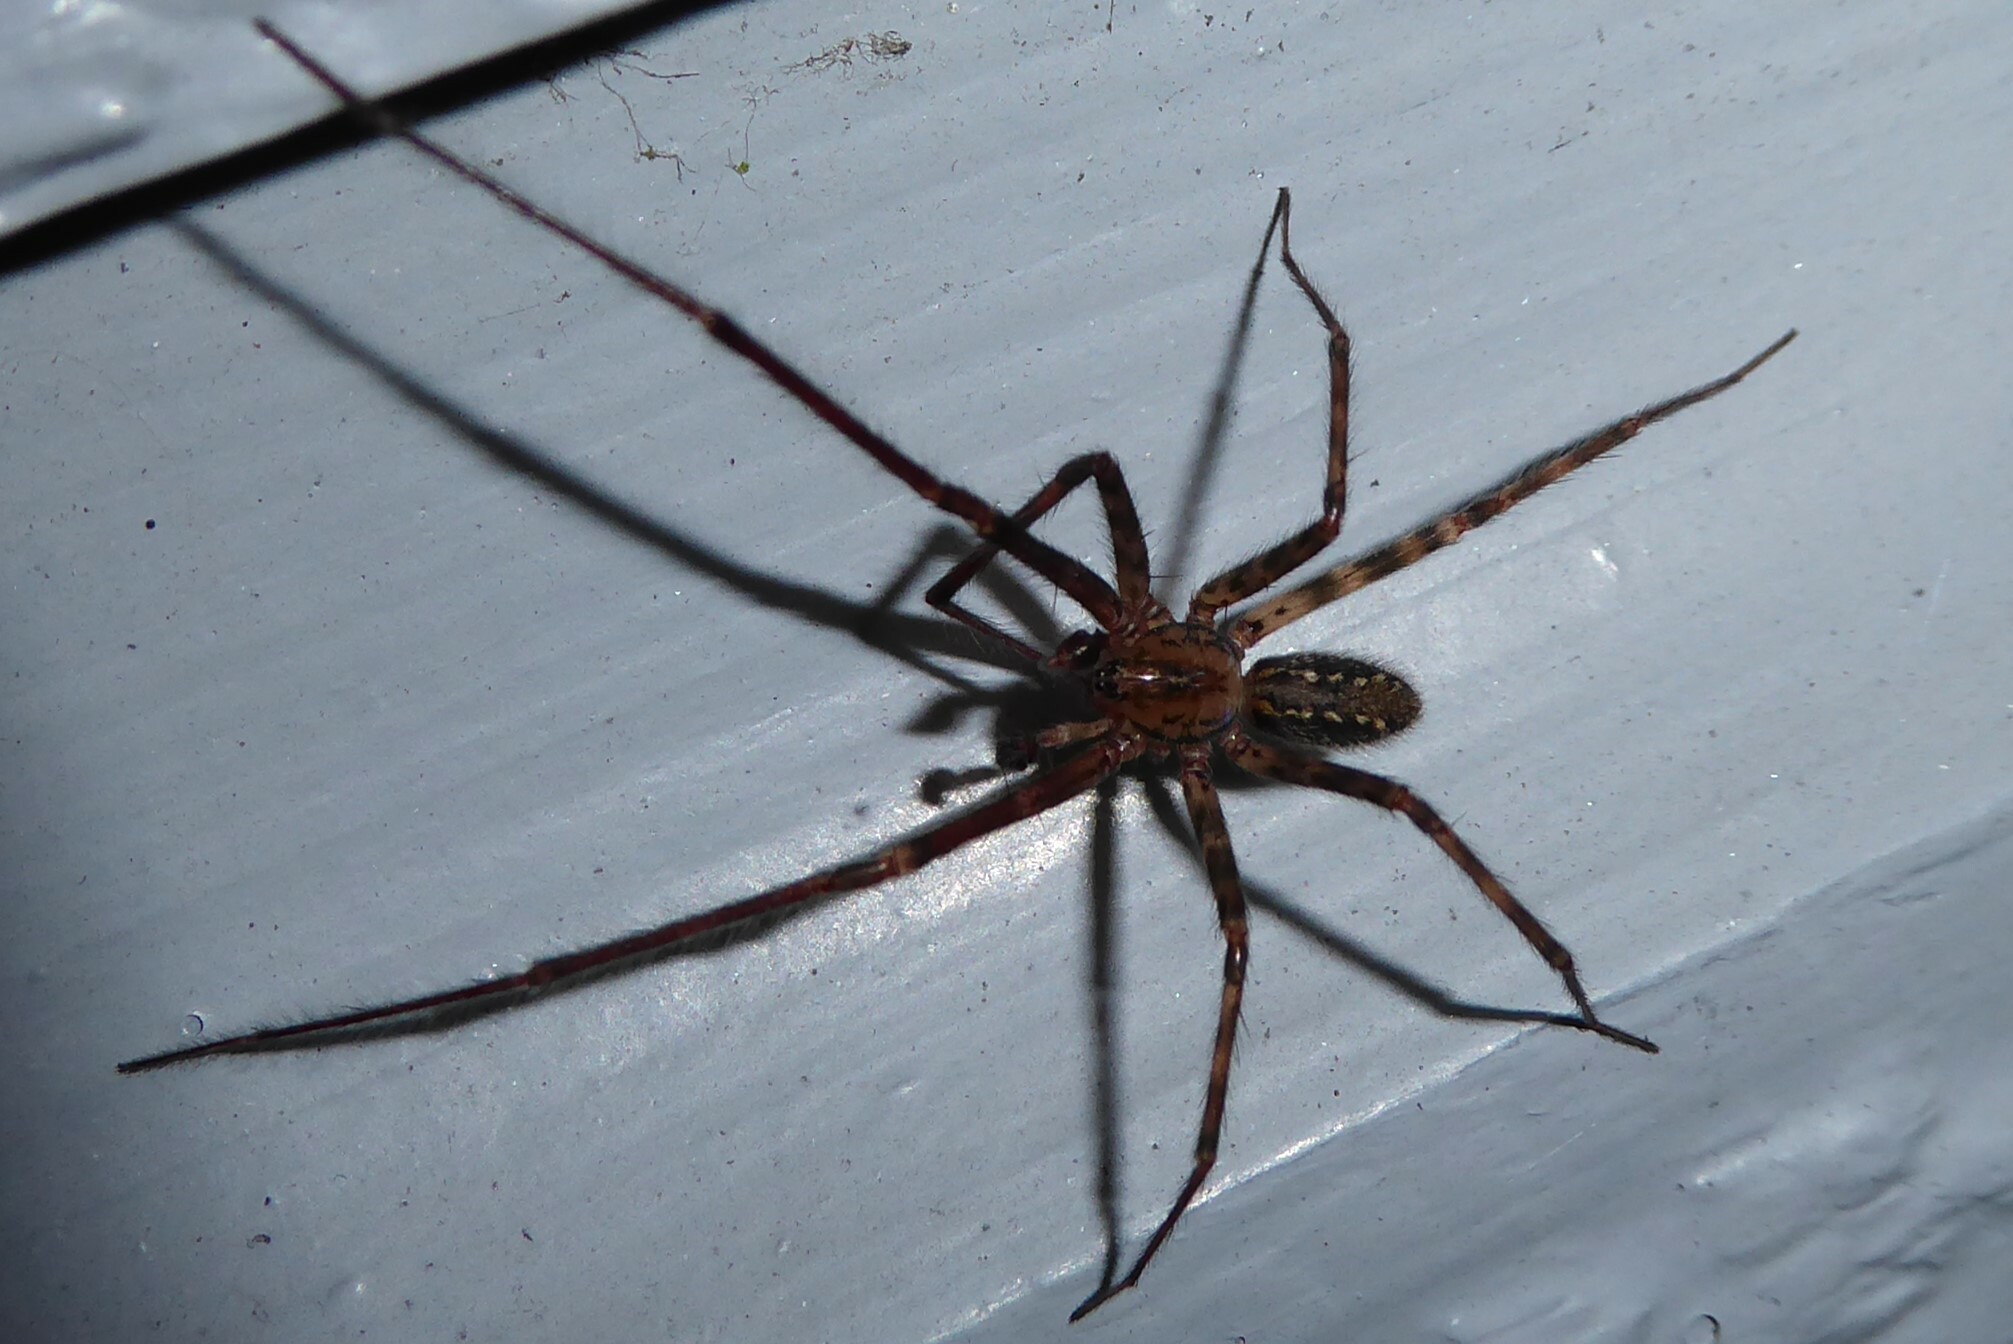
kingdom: Animalia
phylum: Arthropoda
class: Arachnida
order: Araneae
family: Stiphidiidae
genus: Stiphidion
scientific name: Stiphidion facetum
